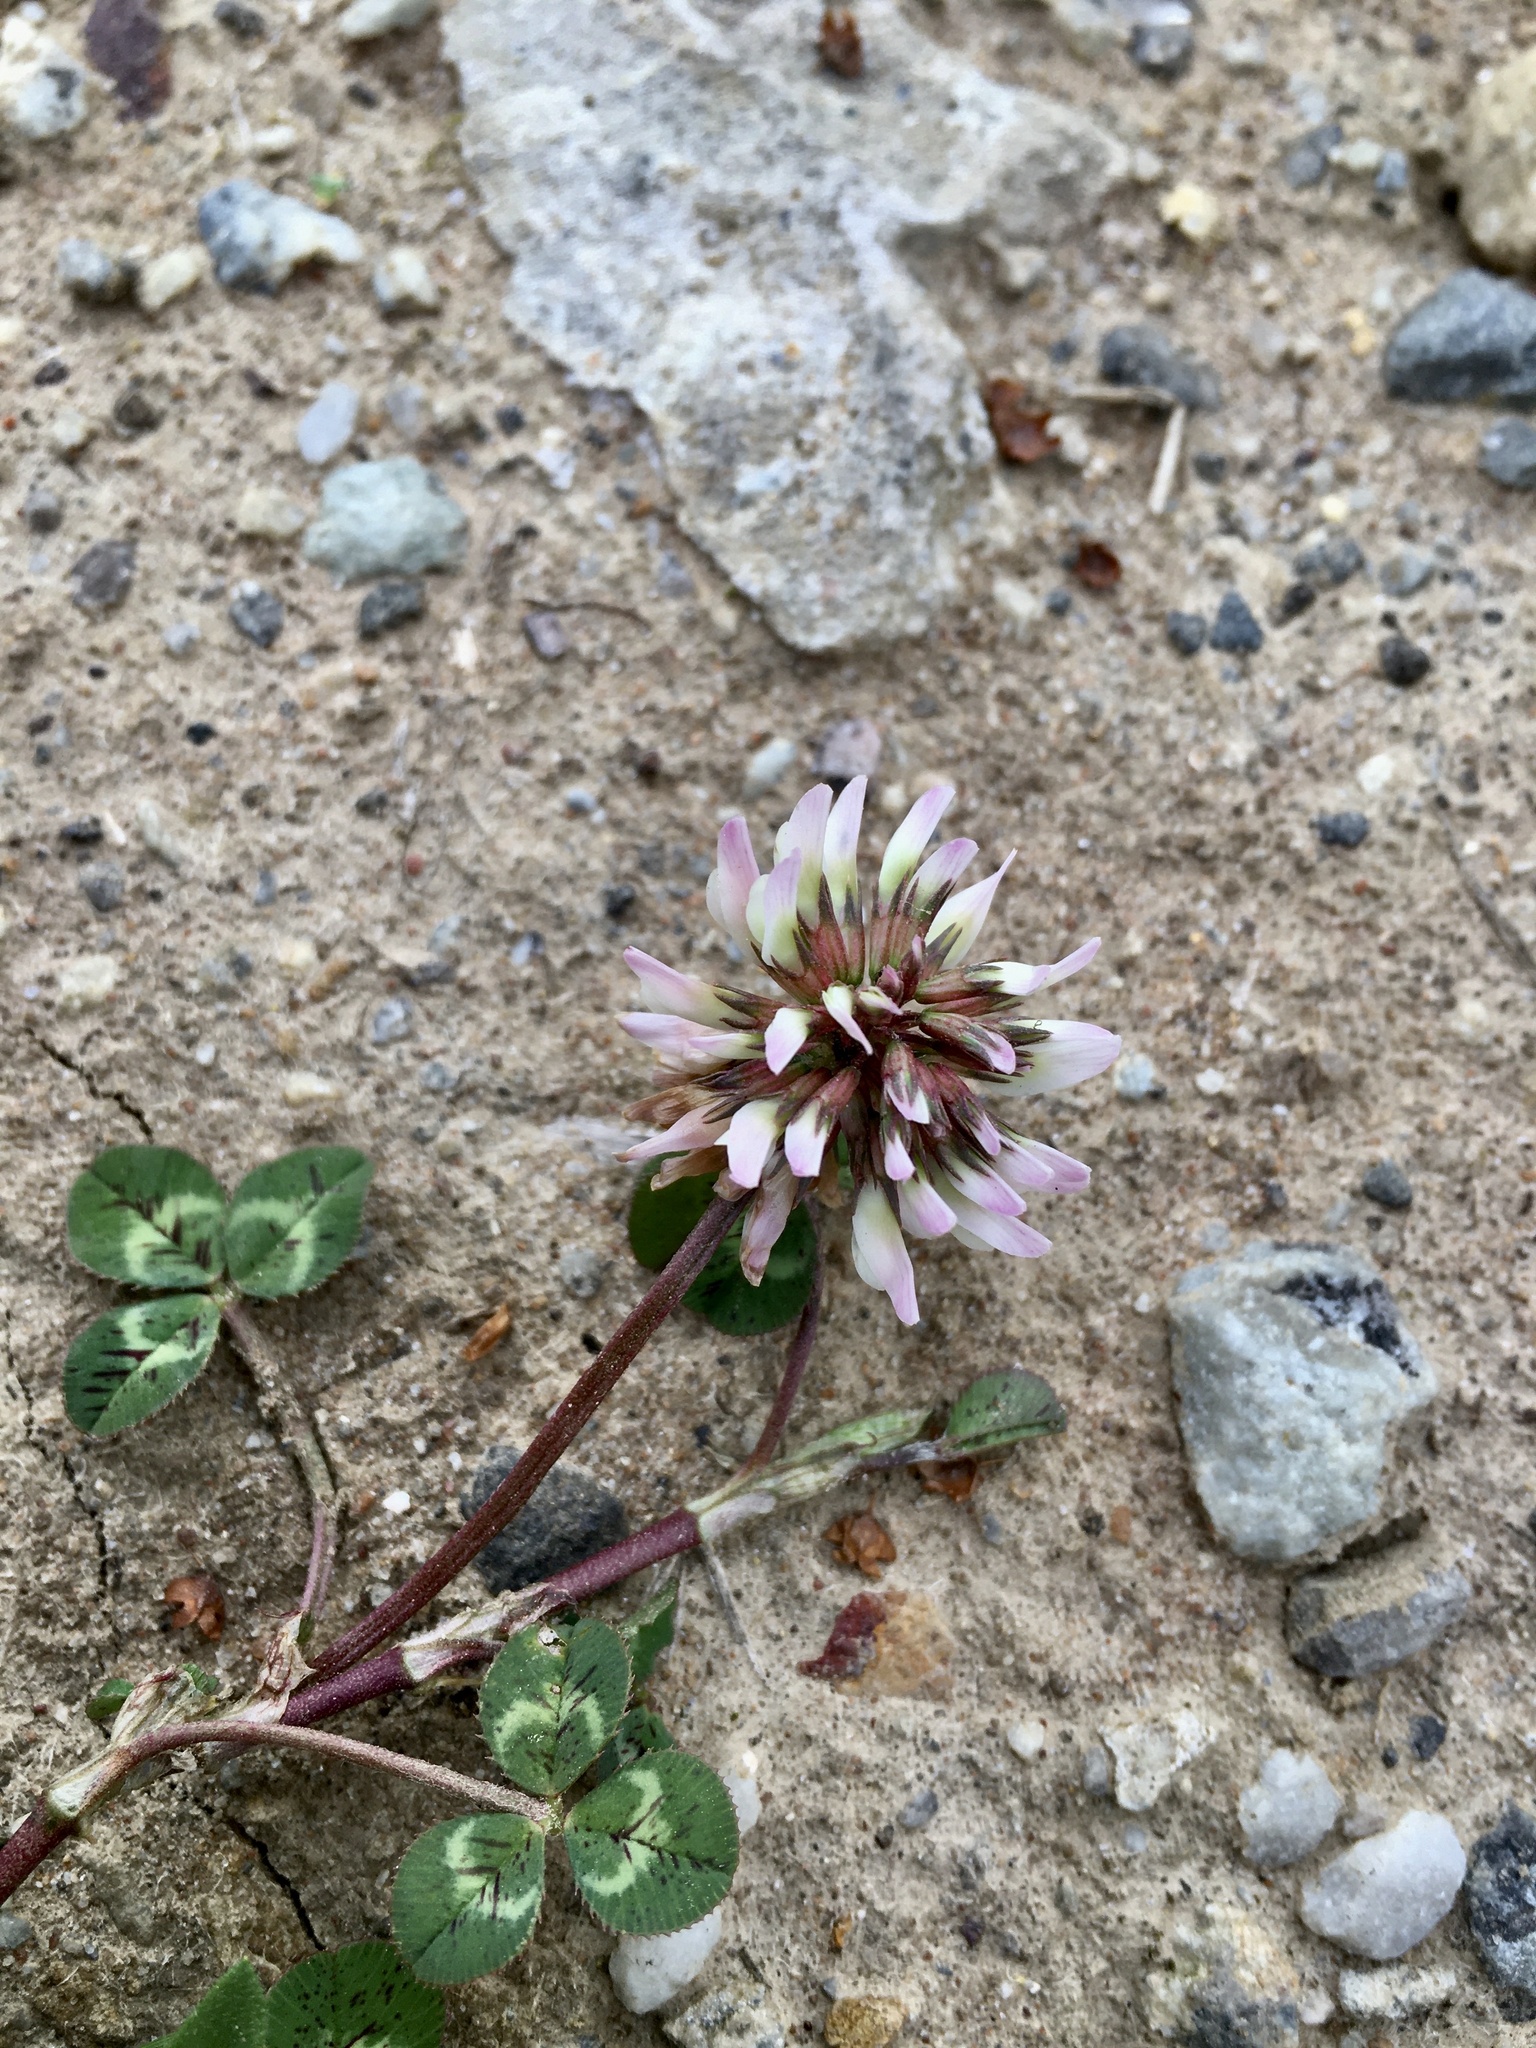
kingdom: Plantae
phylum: Tracheophyta
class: Magnoliopsida
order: Fabales
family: Fabaceae
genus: Trifolium
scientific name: Trifolium repens
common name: White clover
